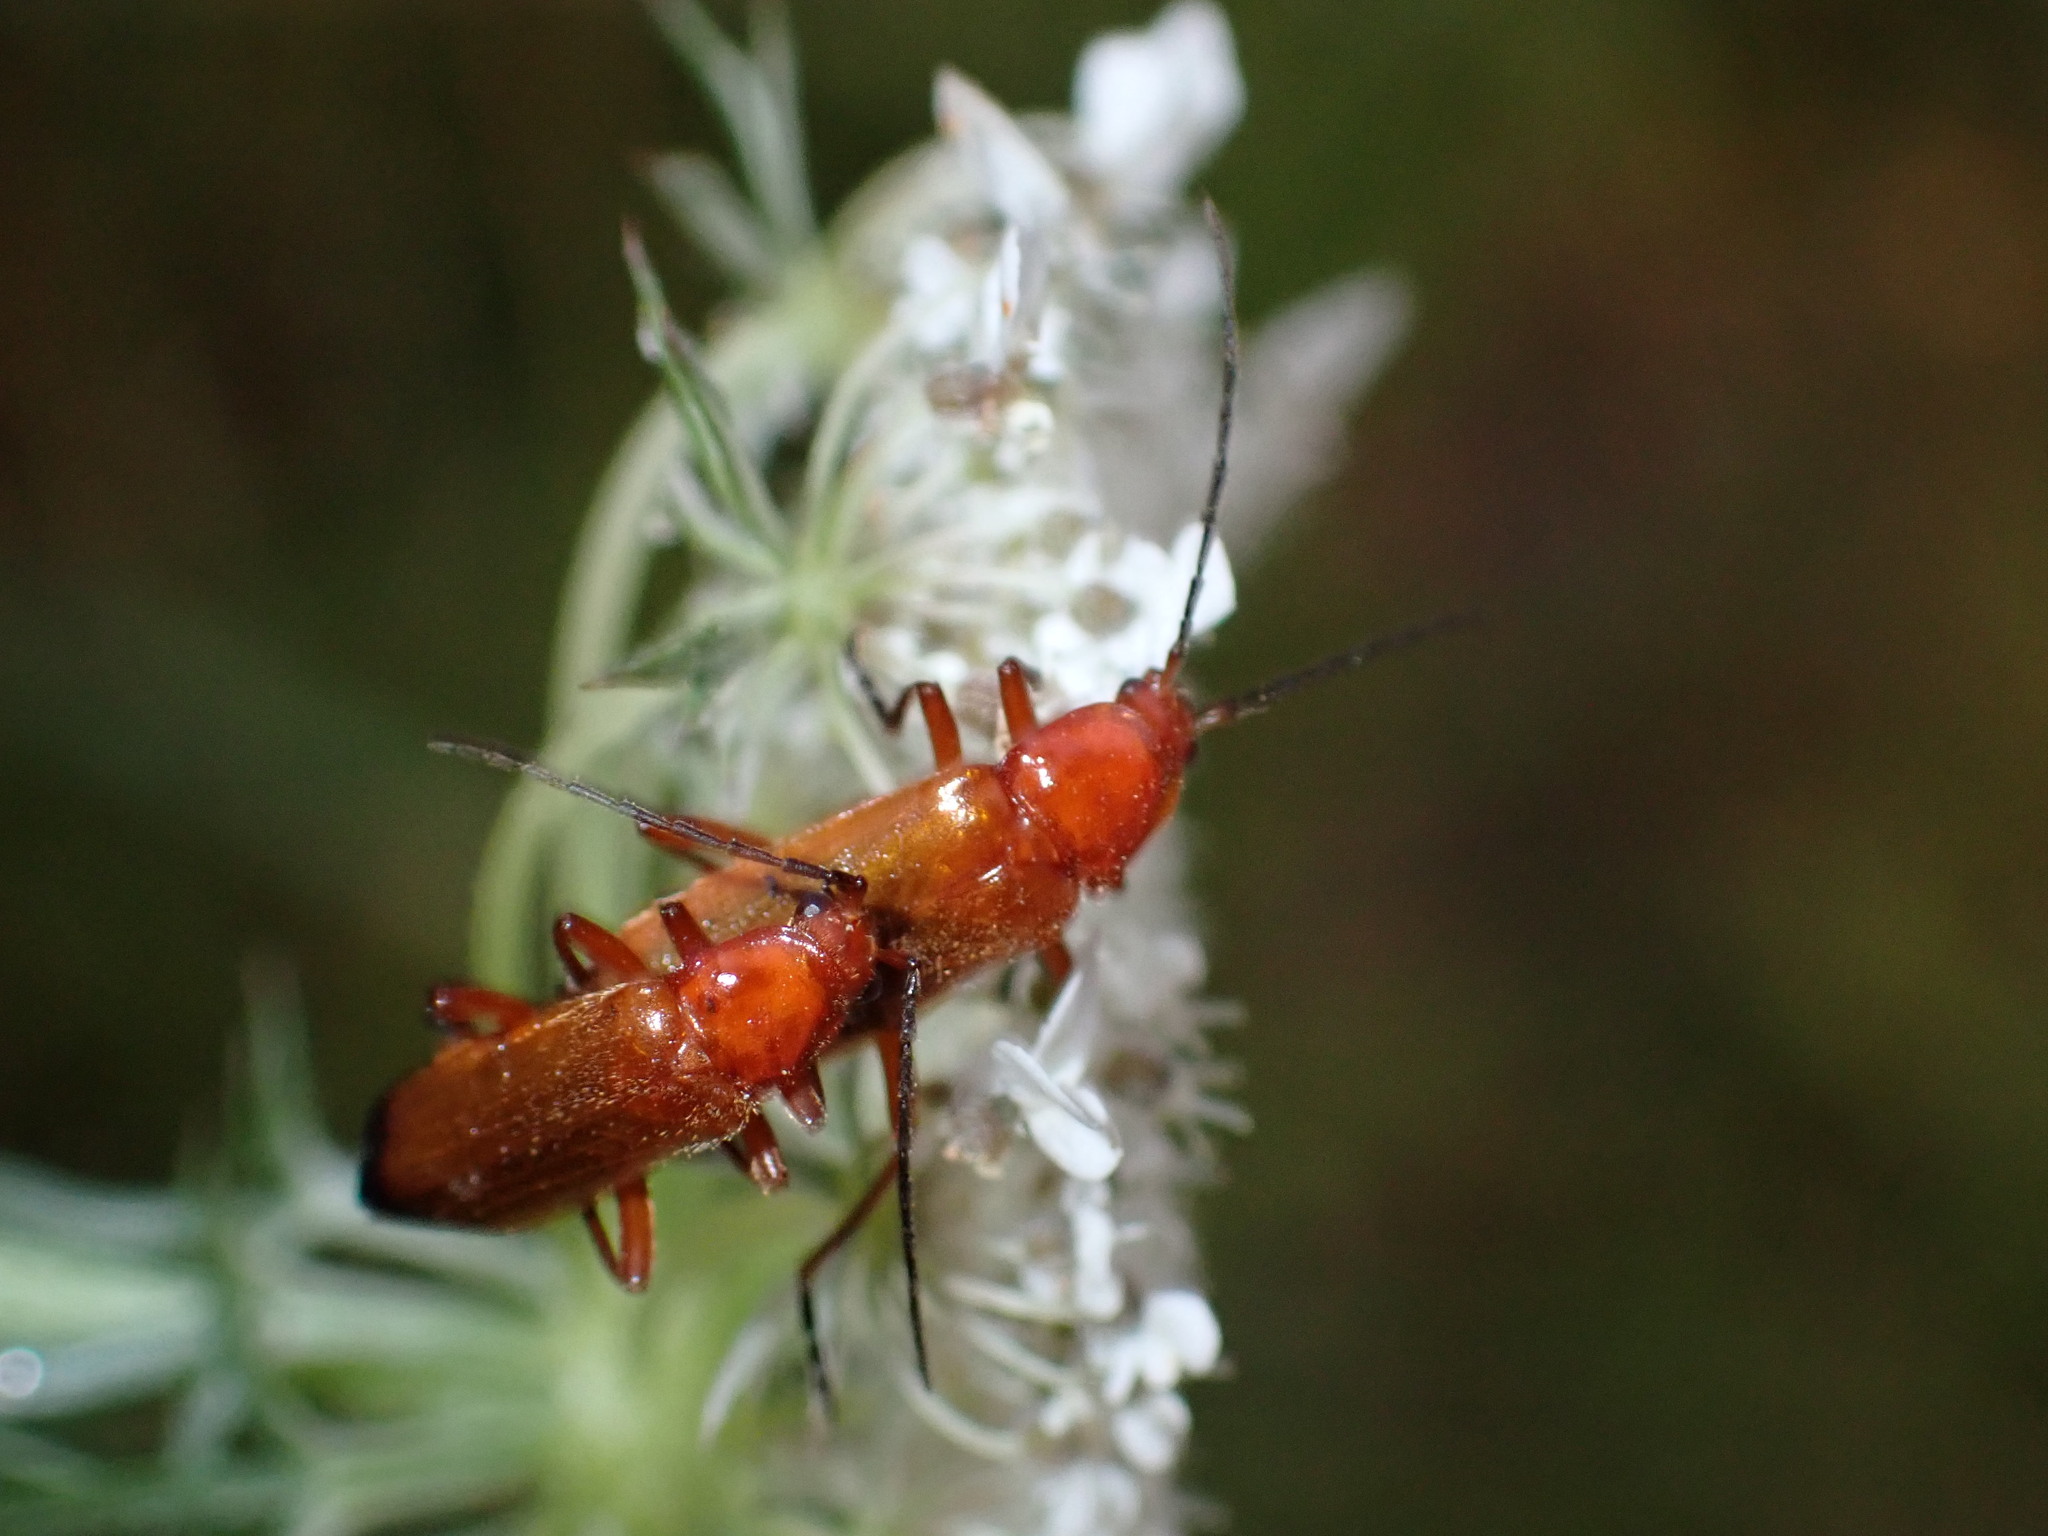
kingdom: Animalia
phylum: Arthropoda
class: Insecta
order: Coleoptera
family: Cantharidae
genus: Rhagonycha
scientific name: Rhagonycha fulva
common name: Common red soldier beetle
